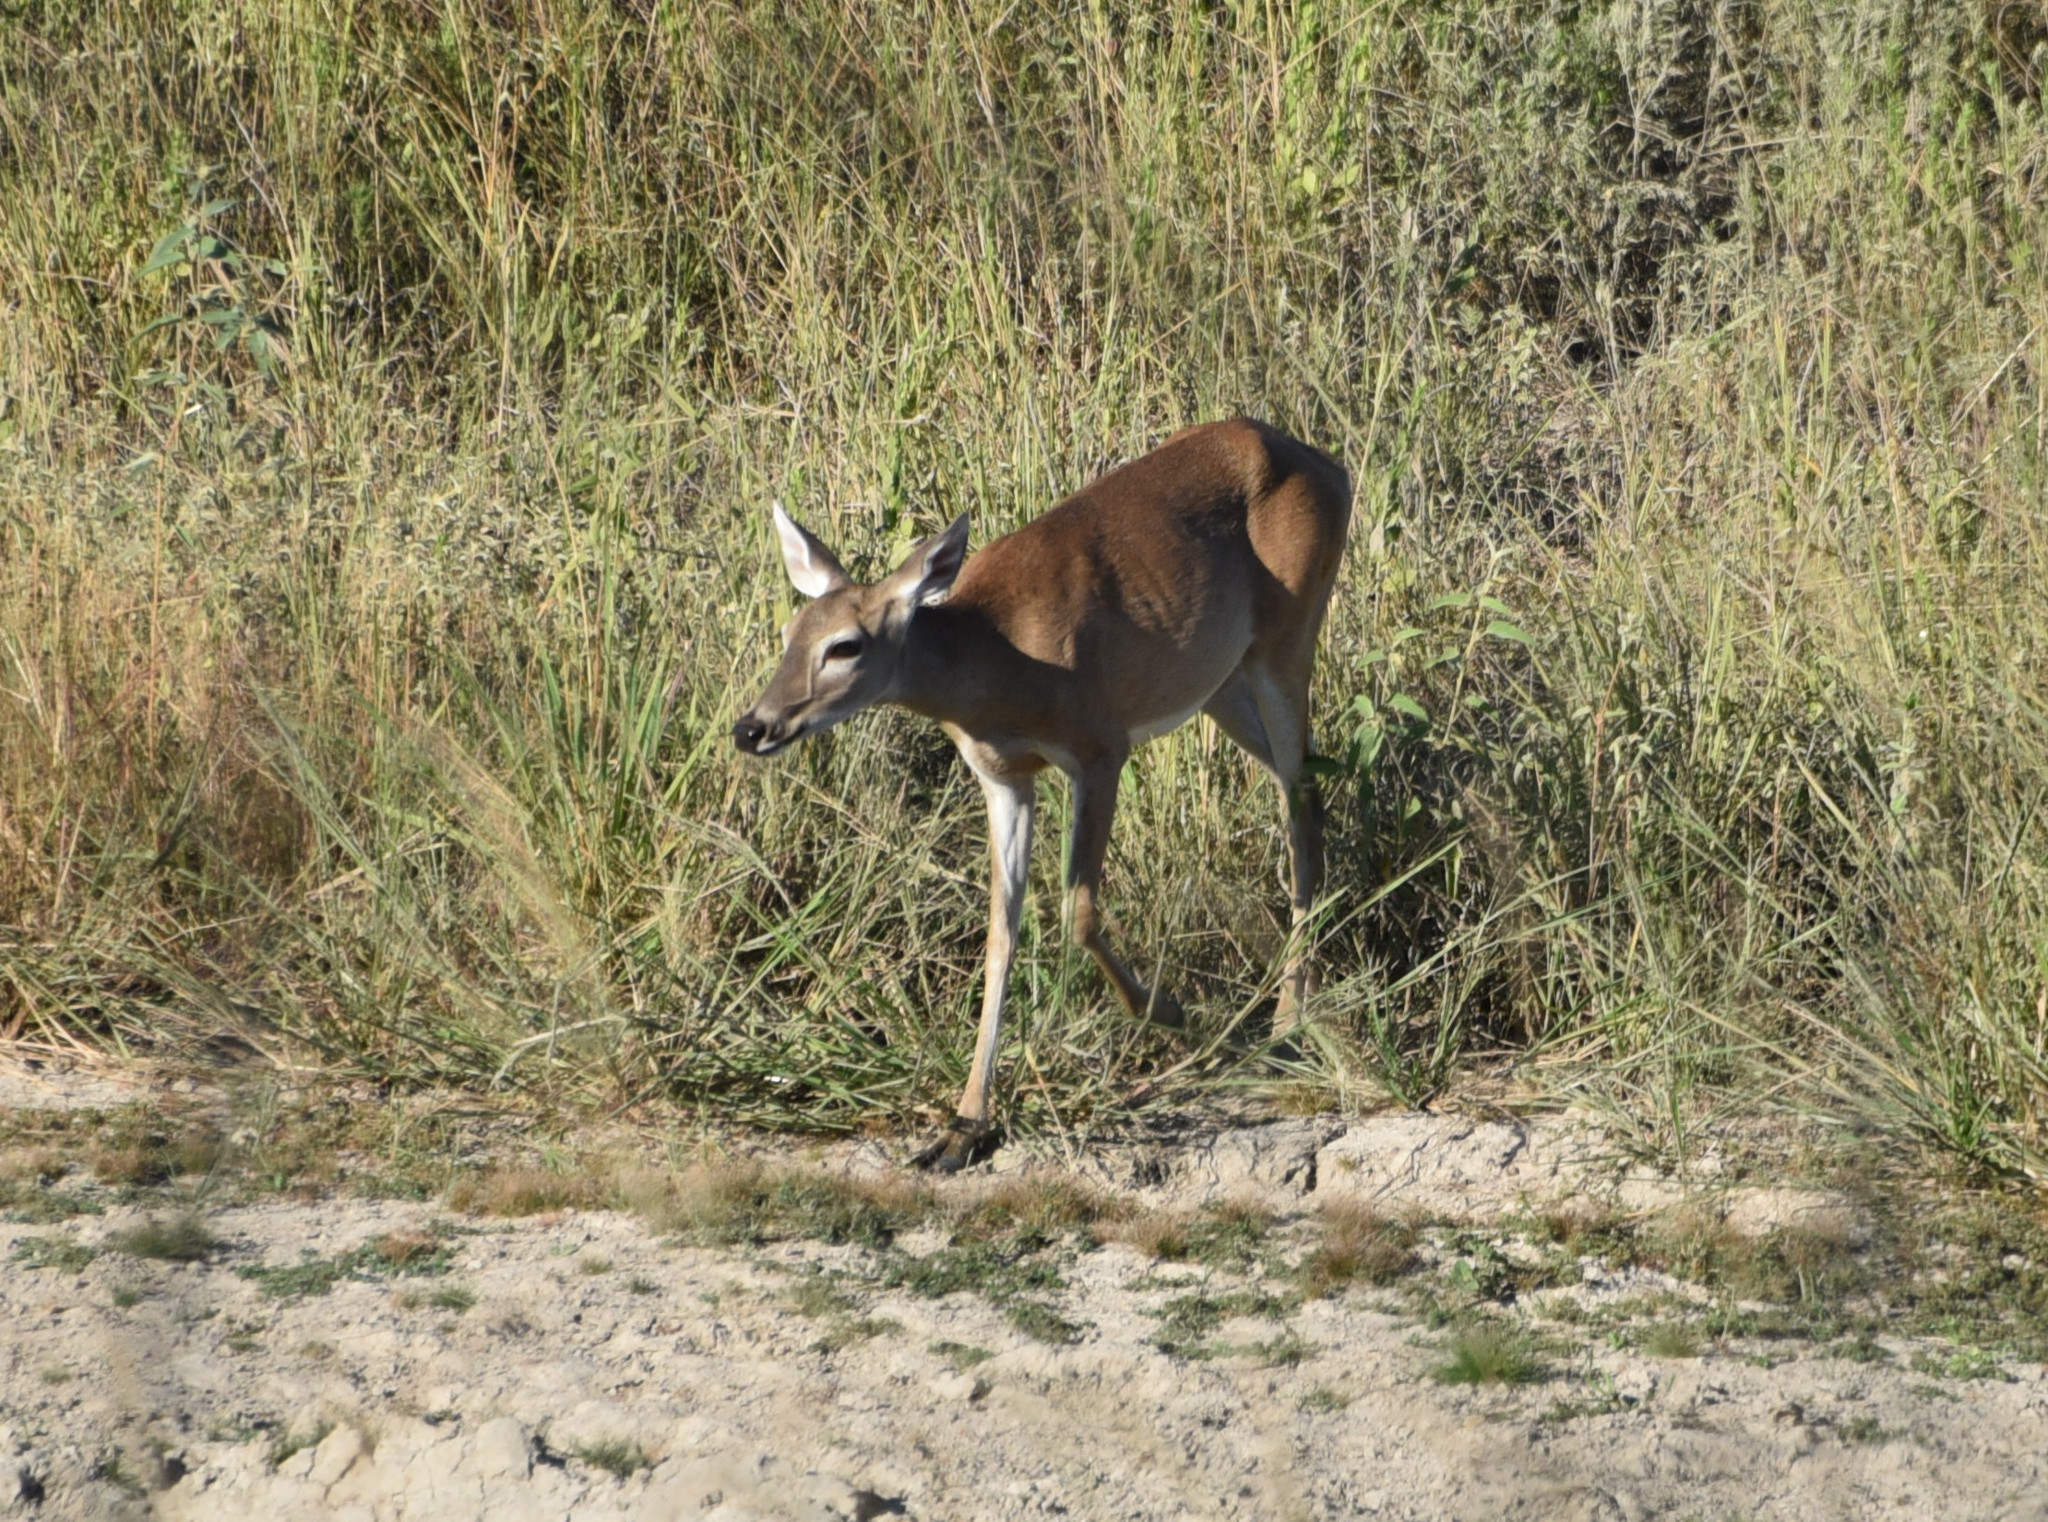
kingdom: Animalia
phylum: Chordata
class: Mammalia
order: Artiodactyla
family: Cervidae
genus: Odocoileus
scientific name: Odocoileus virginianus
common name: White-tailed deer
